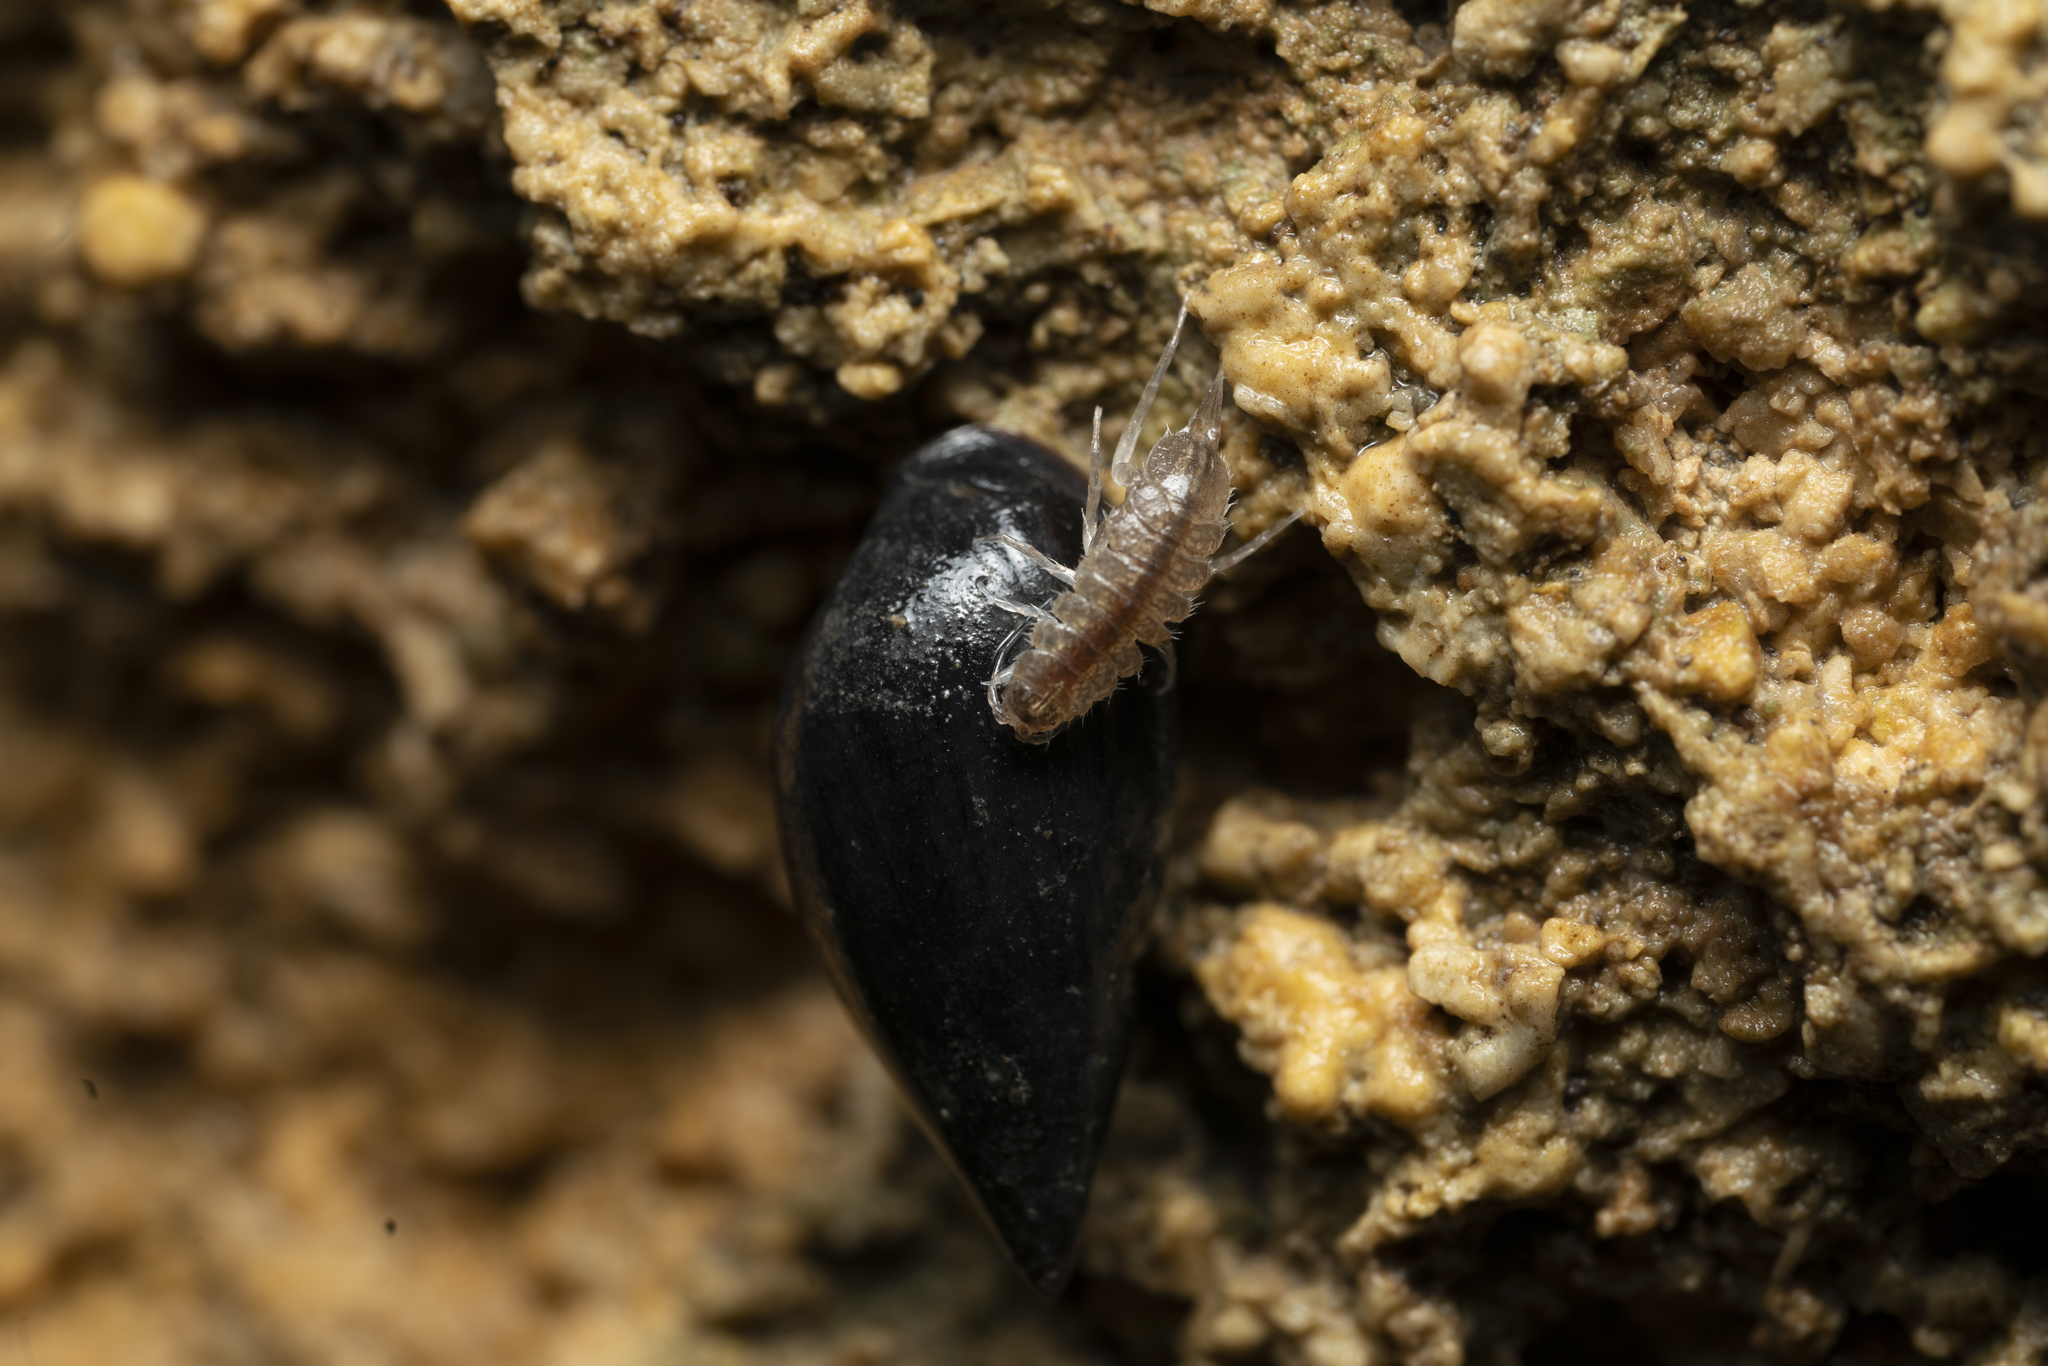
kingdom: Animalia
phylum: Arthropoda
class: Malacostraca
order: Isopoda
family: Asellidae
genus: Proasellus
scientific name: Proasellus coxalis
